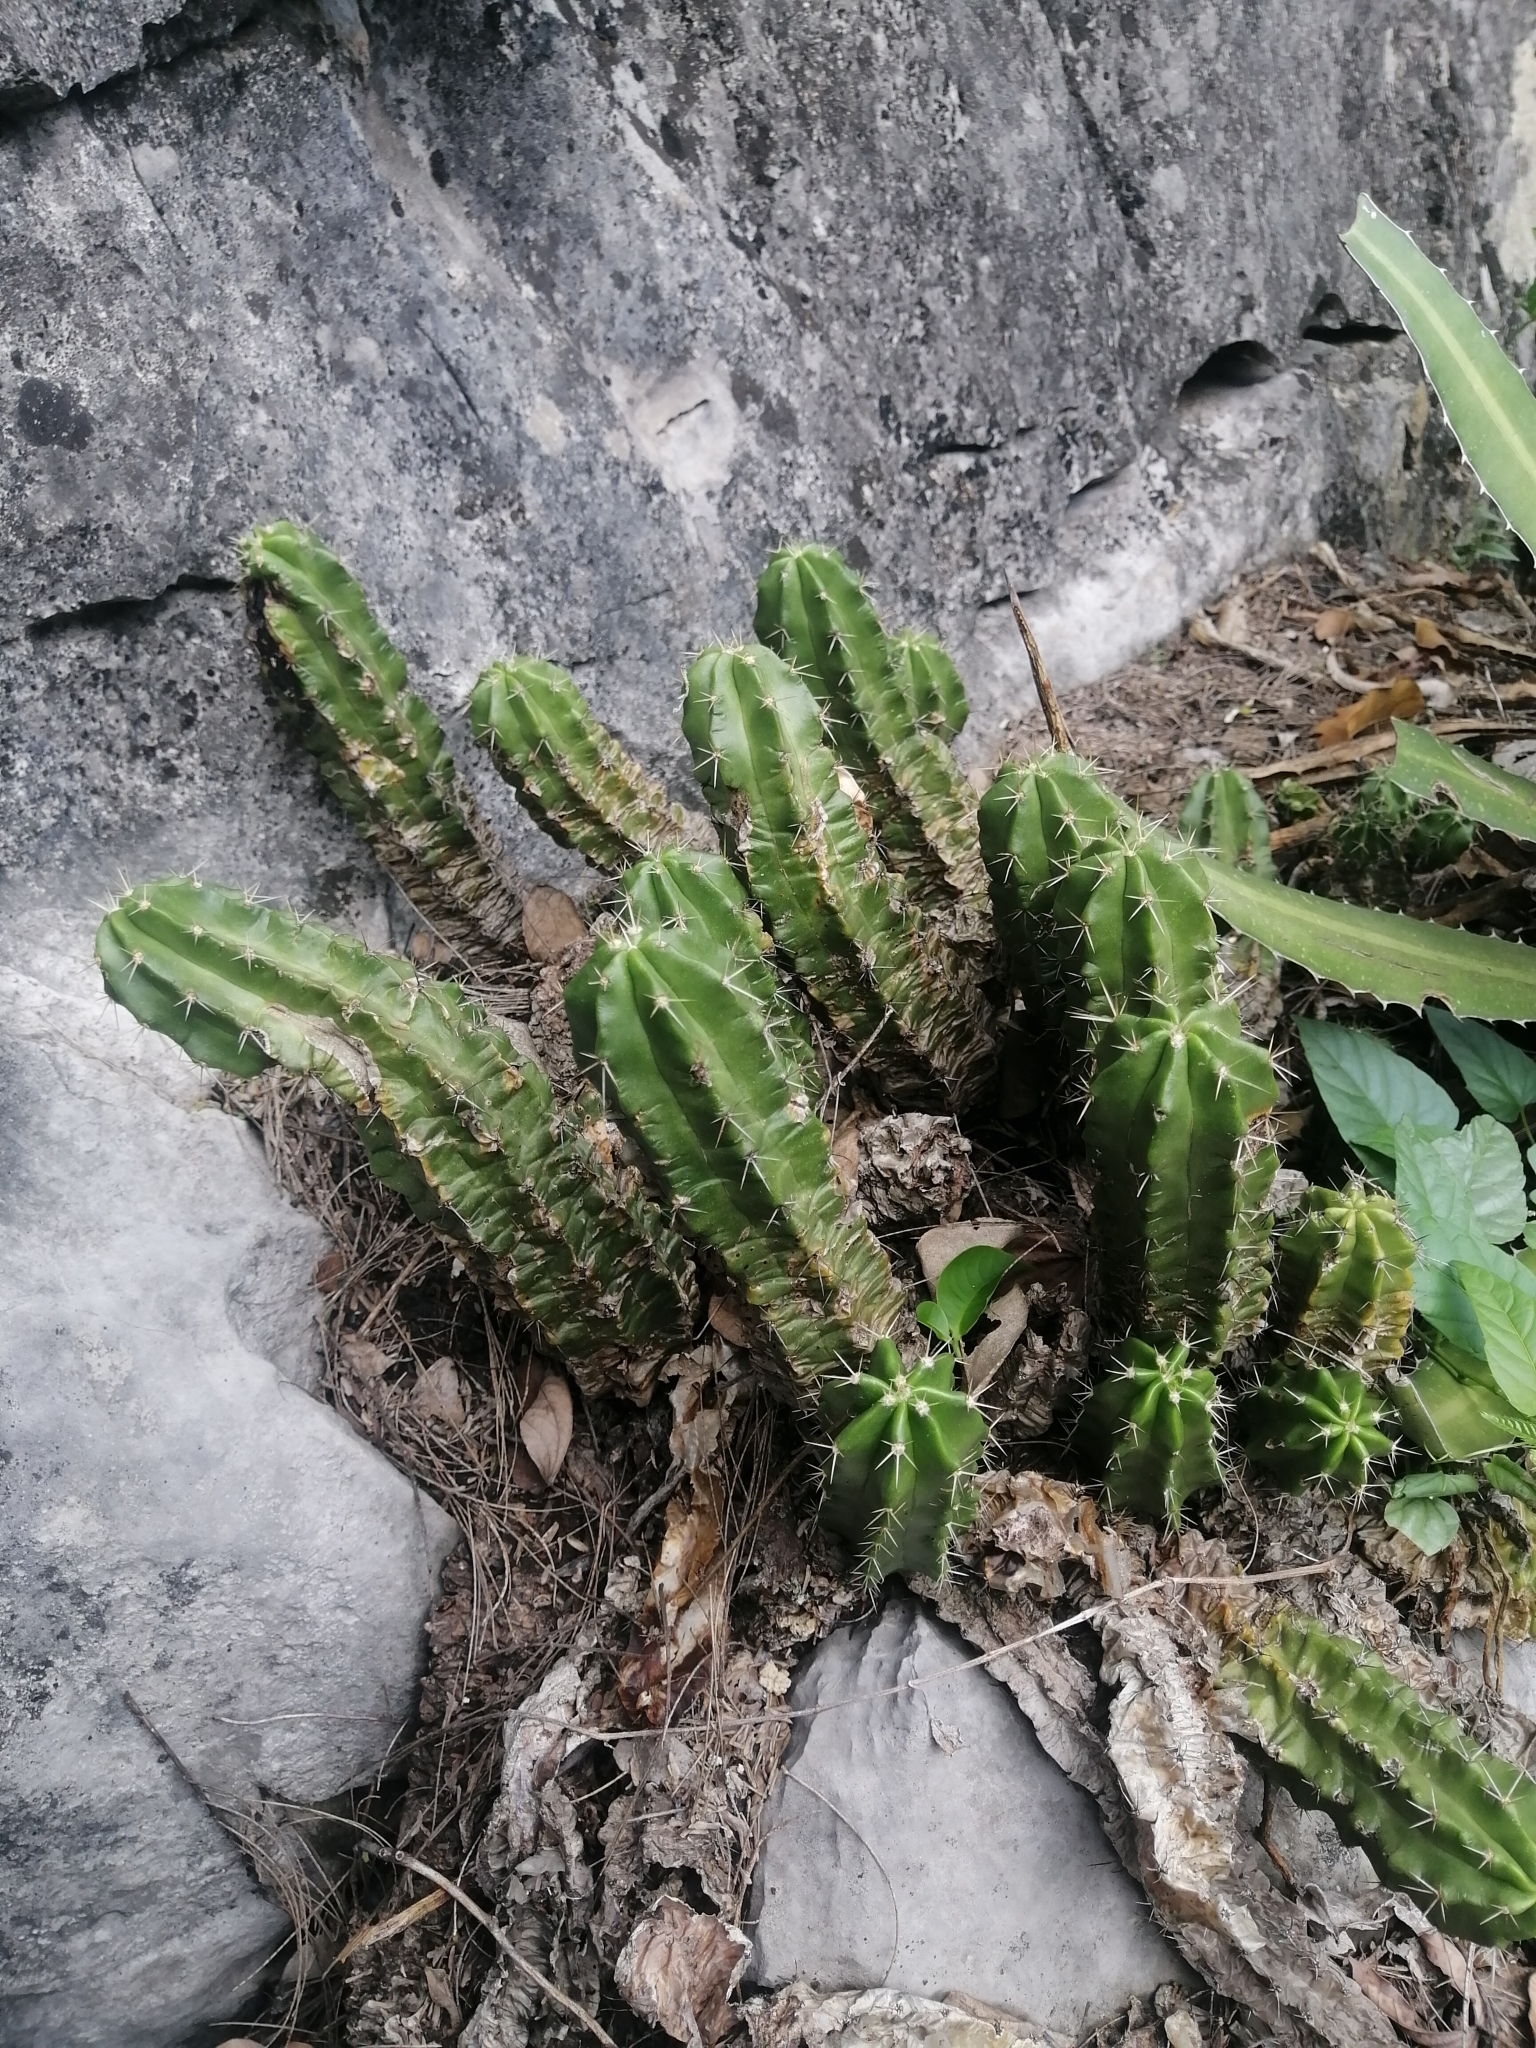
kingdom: Plantae
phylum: Tracheophyta
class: Magnoliopsida
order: Caryophyllales
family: Cactaceae
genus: Echinocereus
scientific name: Echinocereus viereckii
